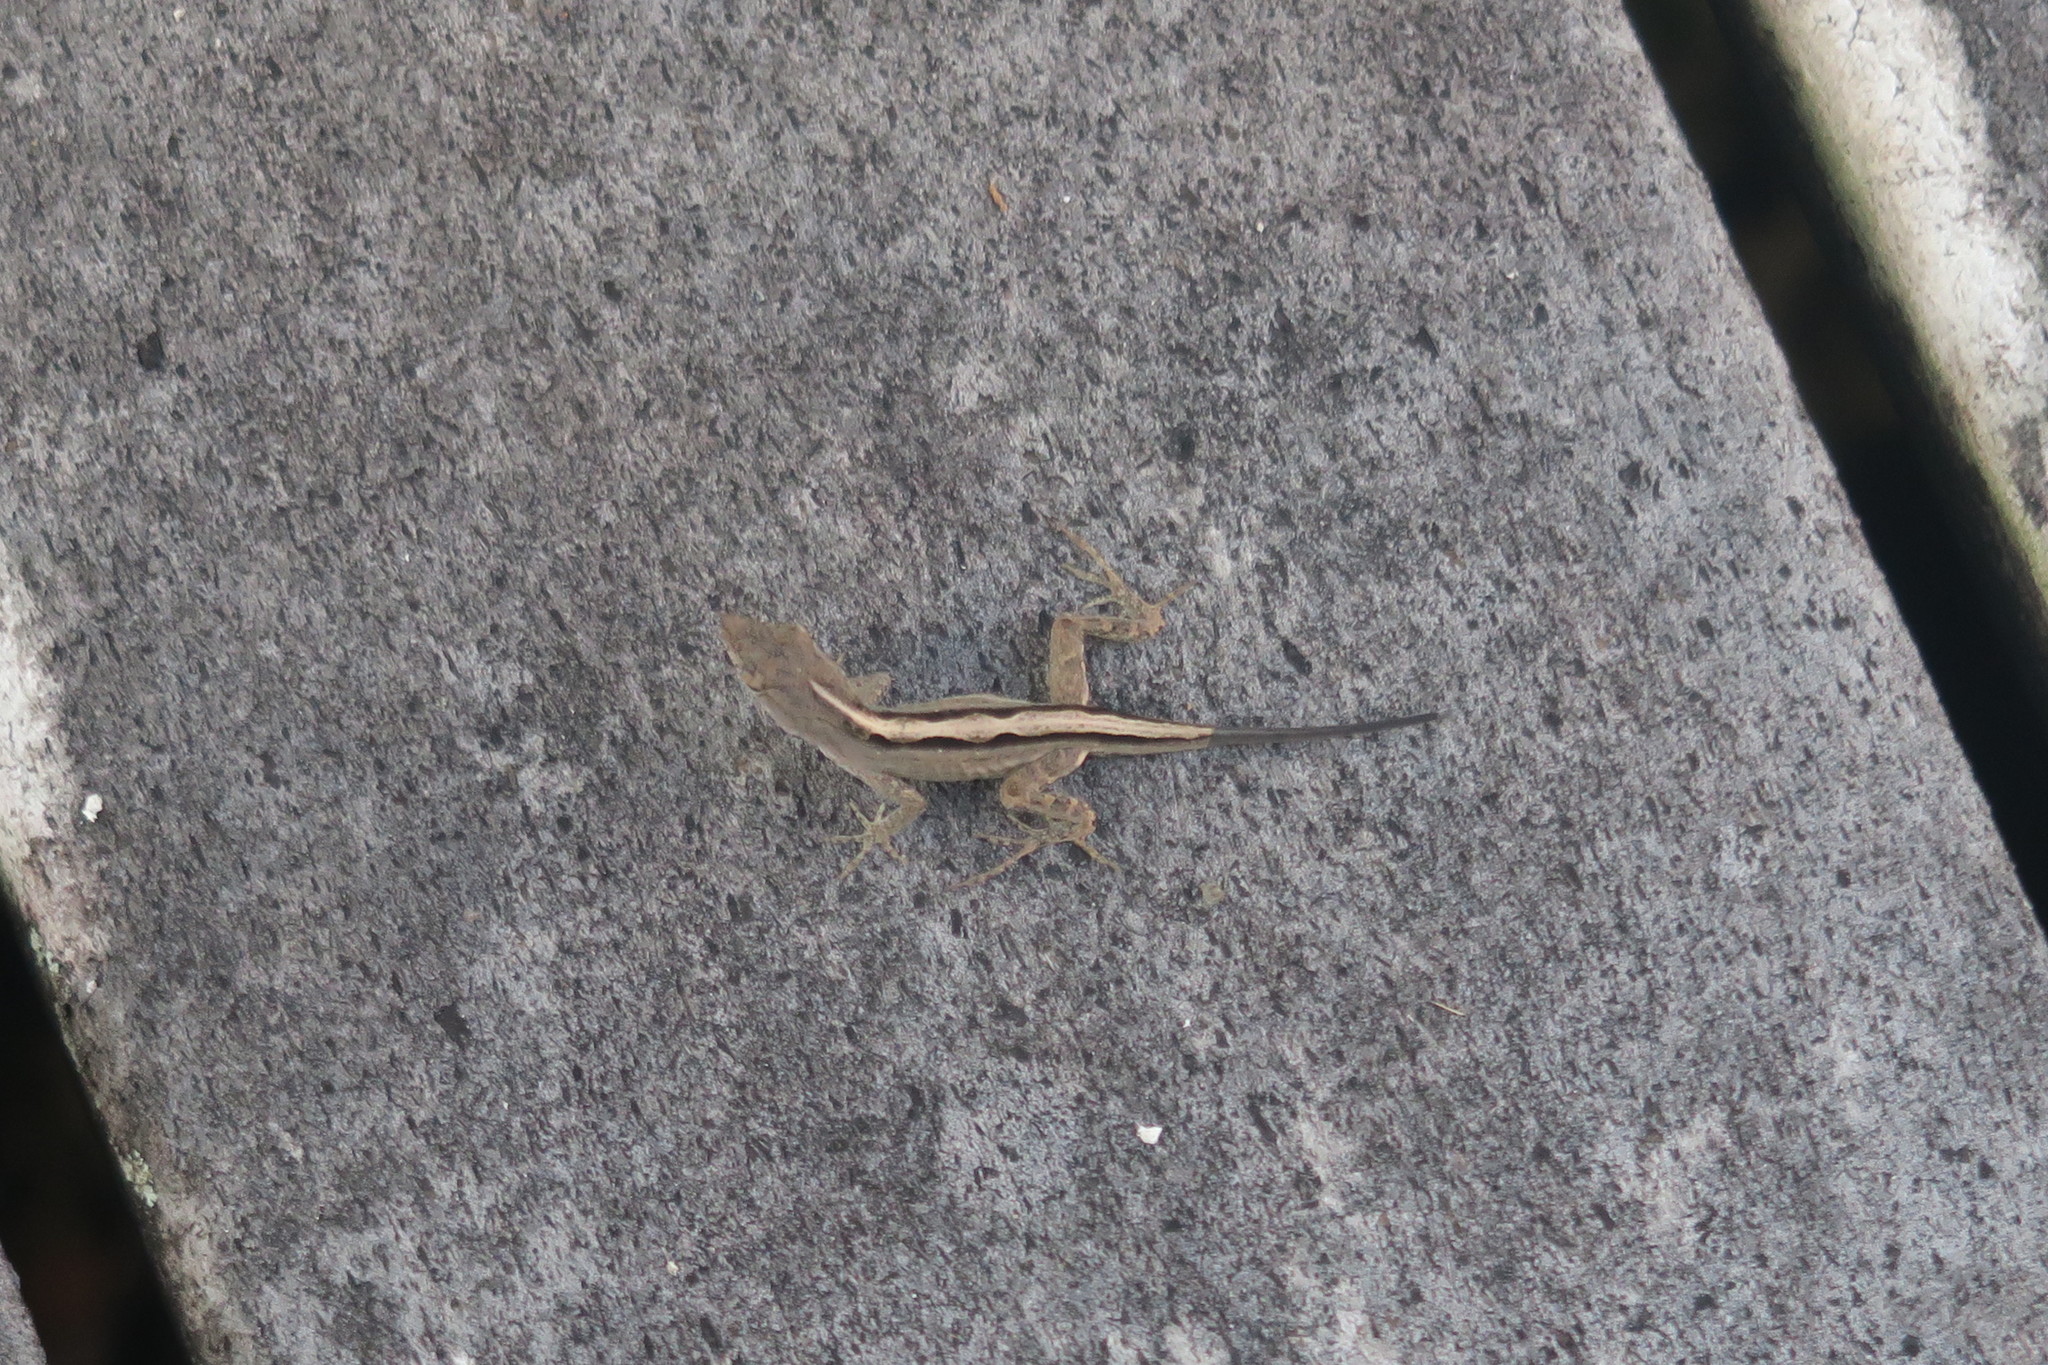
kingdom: Animalia
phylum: Chordata
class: Squamata
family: Dactyloidae
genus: Anolis
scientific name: Anolis sagrei
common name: Brown anole
